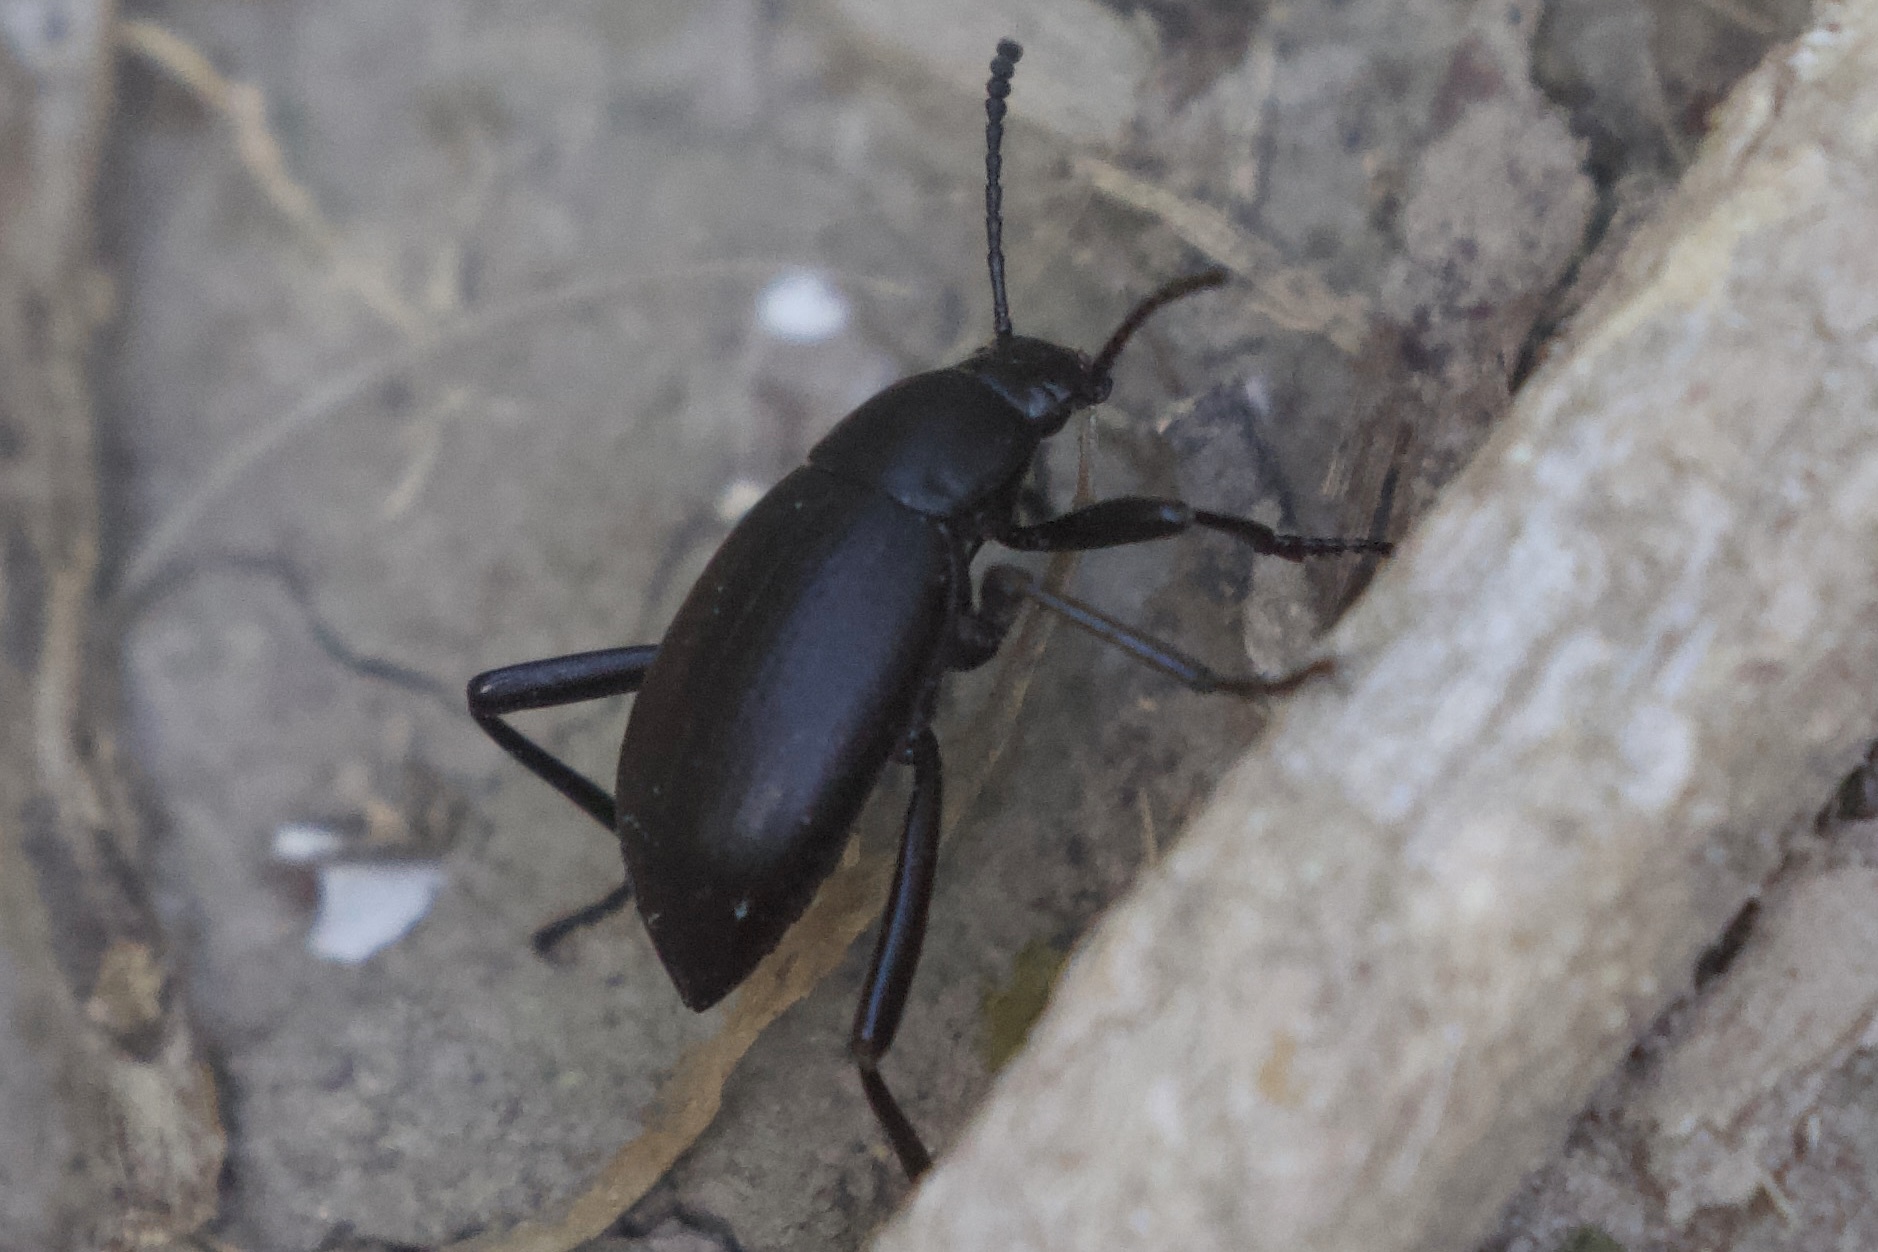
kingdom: Animalia
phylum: Arthropoda
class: Insecta
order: Coleoptera
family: Tenebrionidae
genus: Eleodes
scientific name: Eleodes goryi
